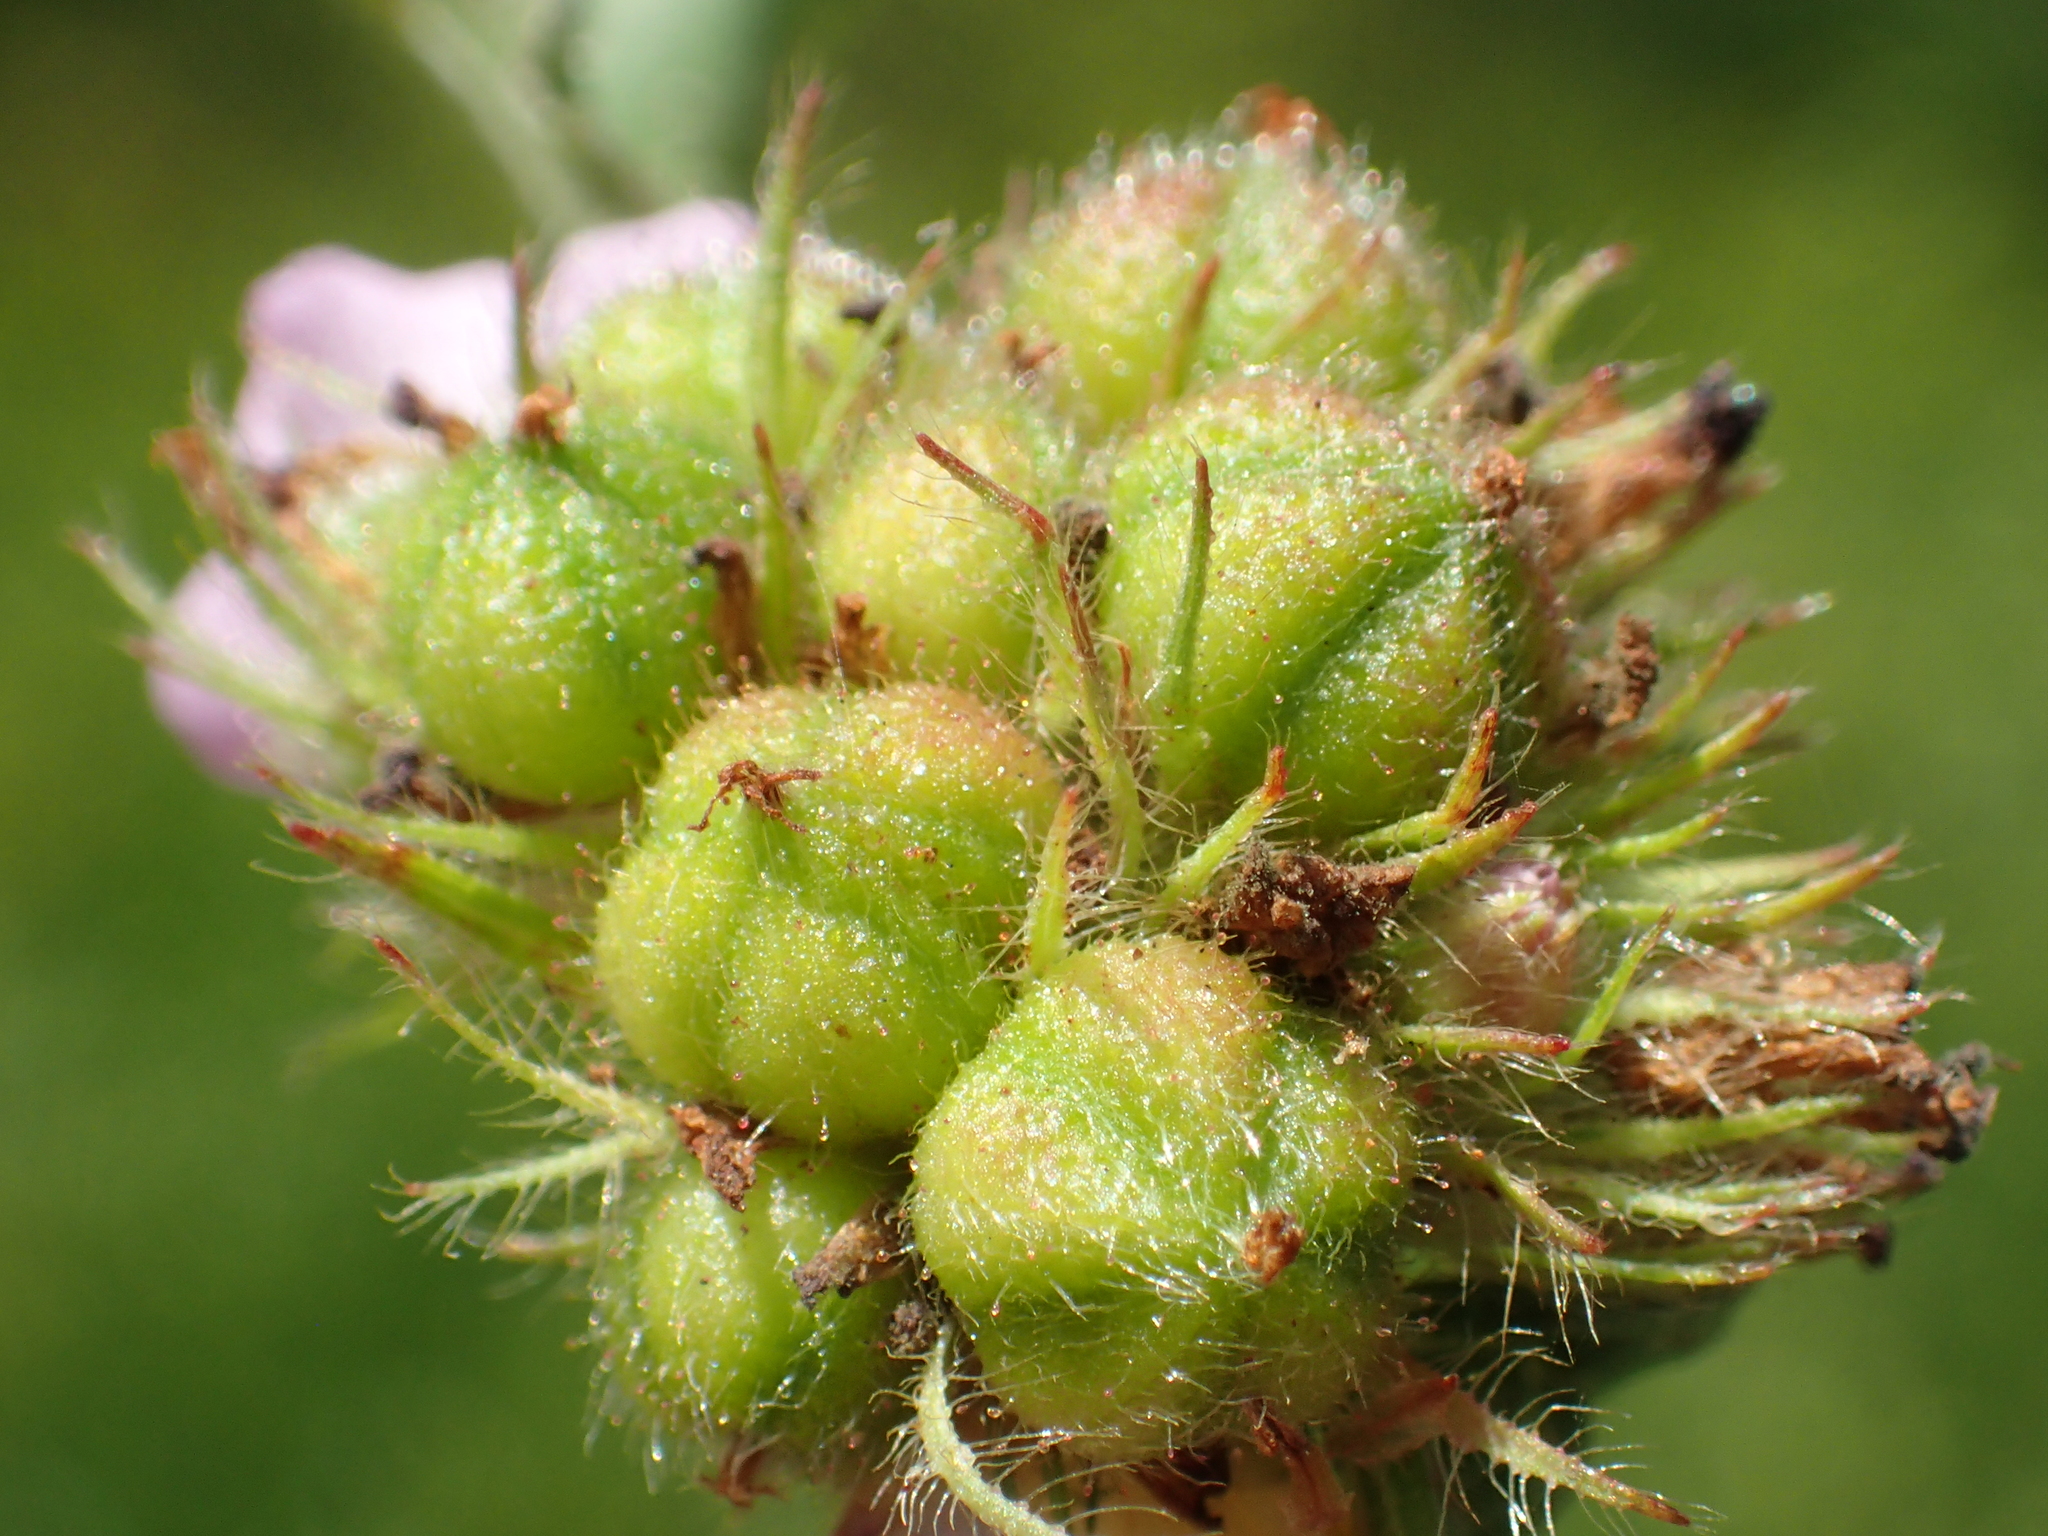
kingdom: Plantae
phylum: Tracheophyta
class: Magnoliopsida
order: Malvales
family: Malvaceae
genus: Melochia
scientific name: Melochia corchorifolia
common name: Chocolateweed
